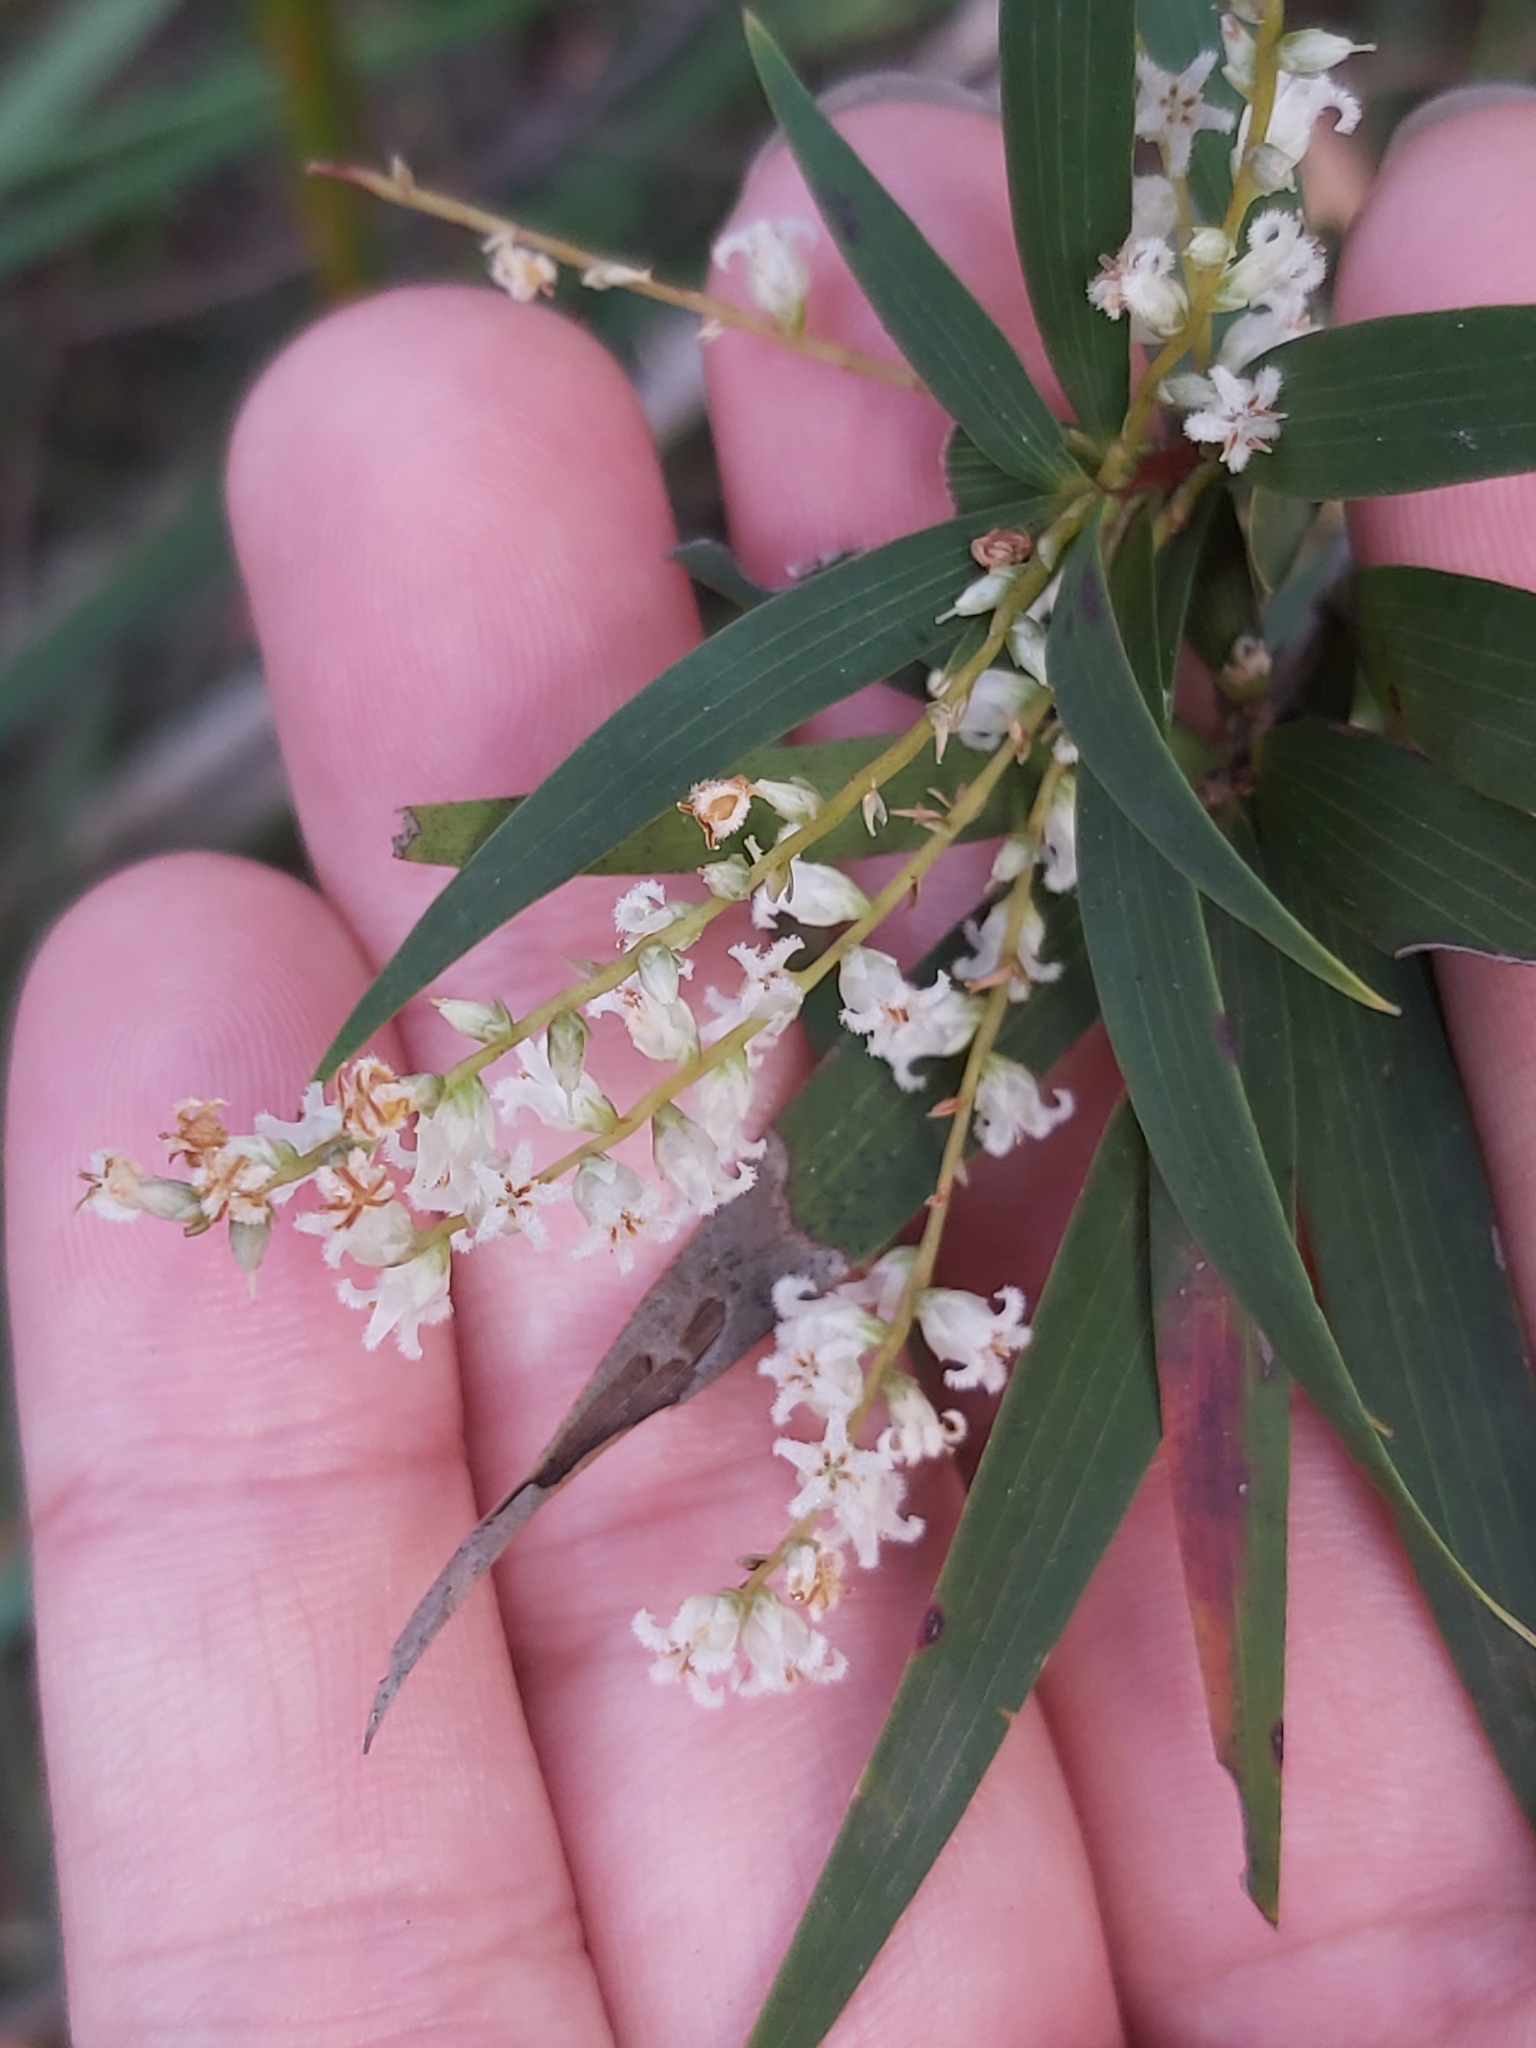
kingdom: Plantae
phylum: Tracheophyta
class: Magnoliopsida
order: Ericales
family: Ericaceae
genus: Leucopogon
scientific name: Leucopogon lanceolatus
